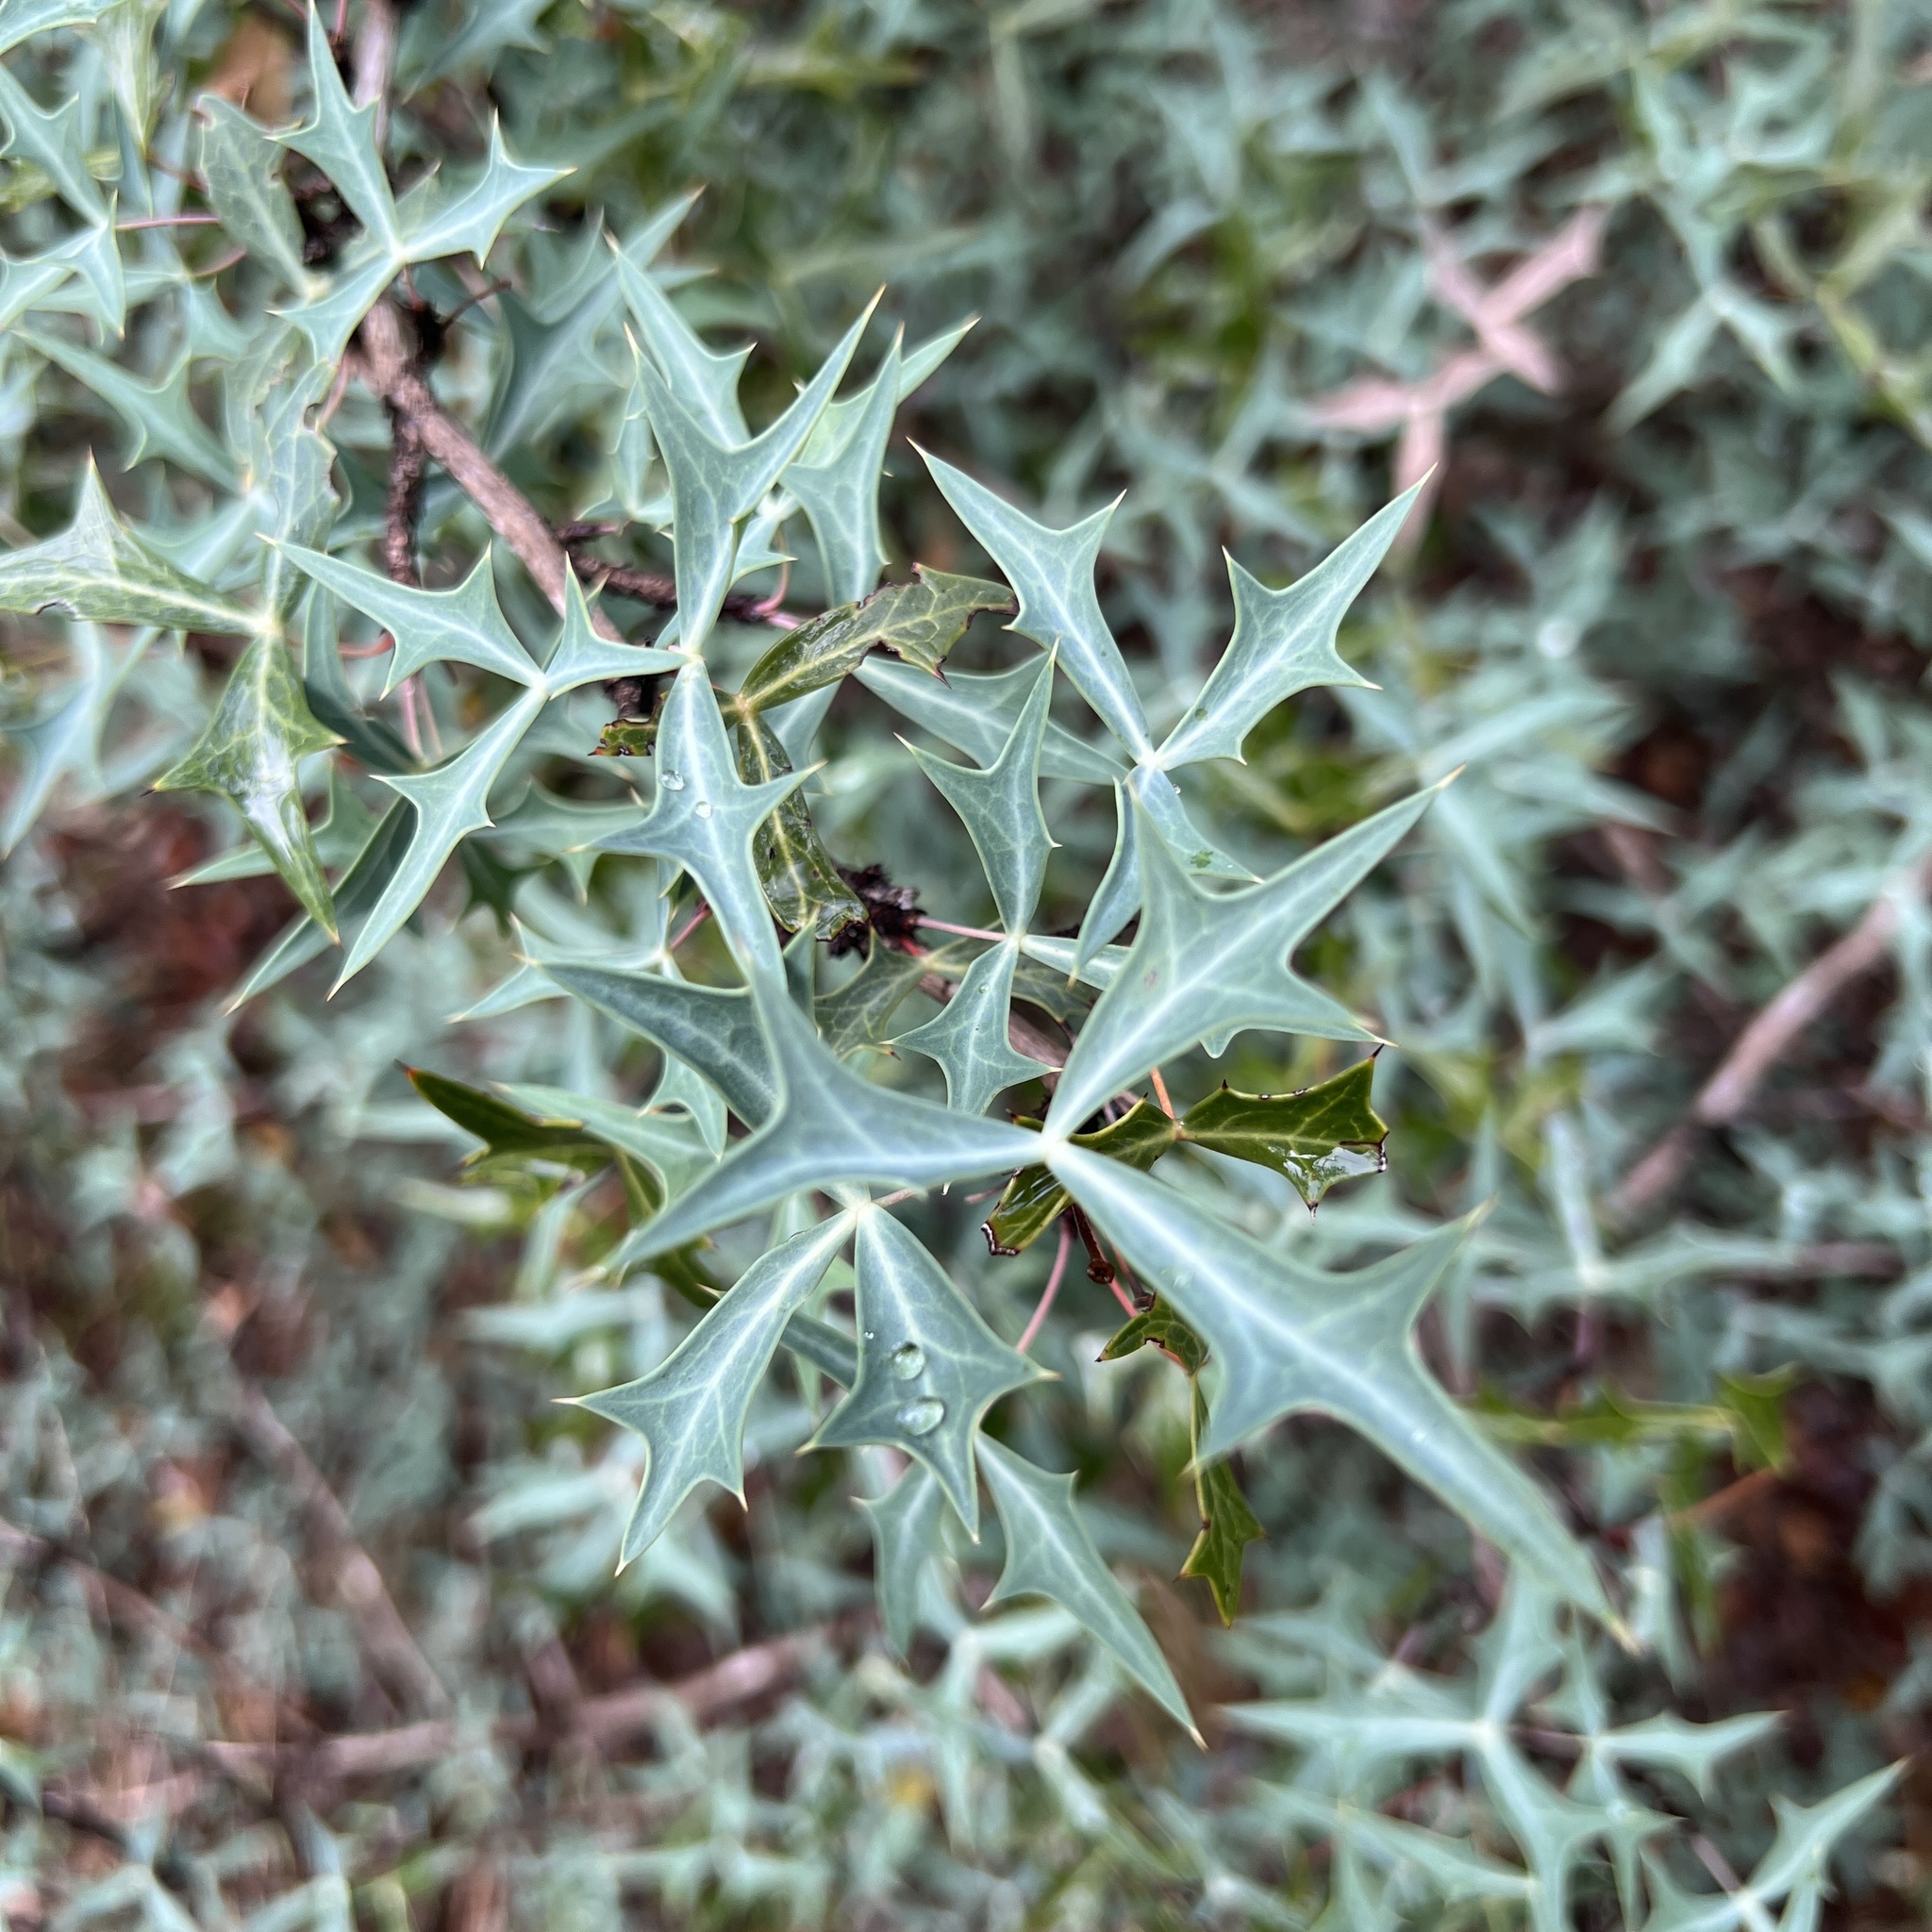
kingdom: Plantae
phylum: Tracheophyta
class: Magnoliopsida
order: Ranunculales
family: Berberidaceae
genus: Alloberberis
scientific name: Alloberberis trifoliolata
